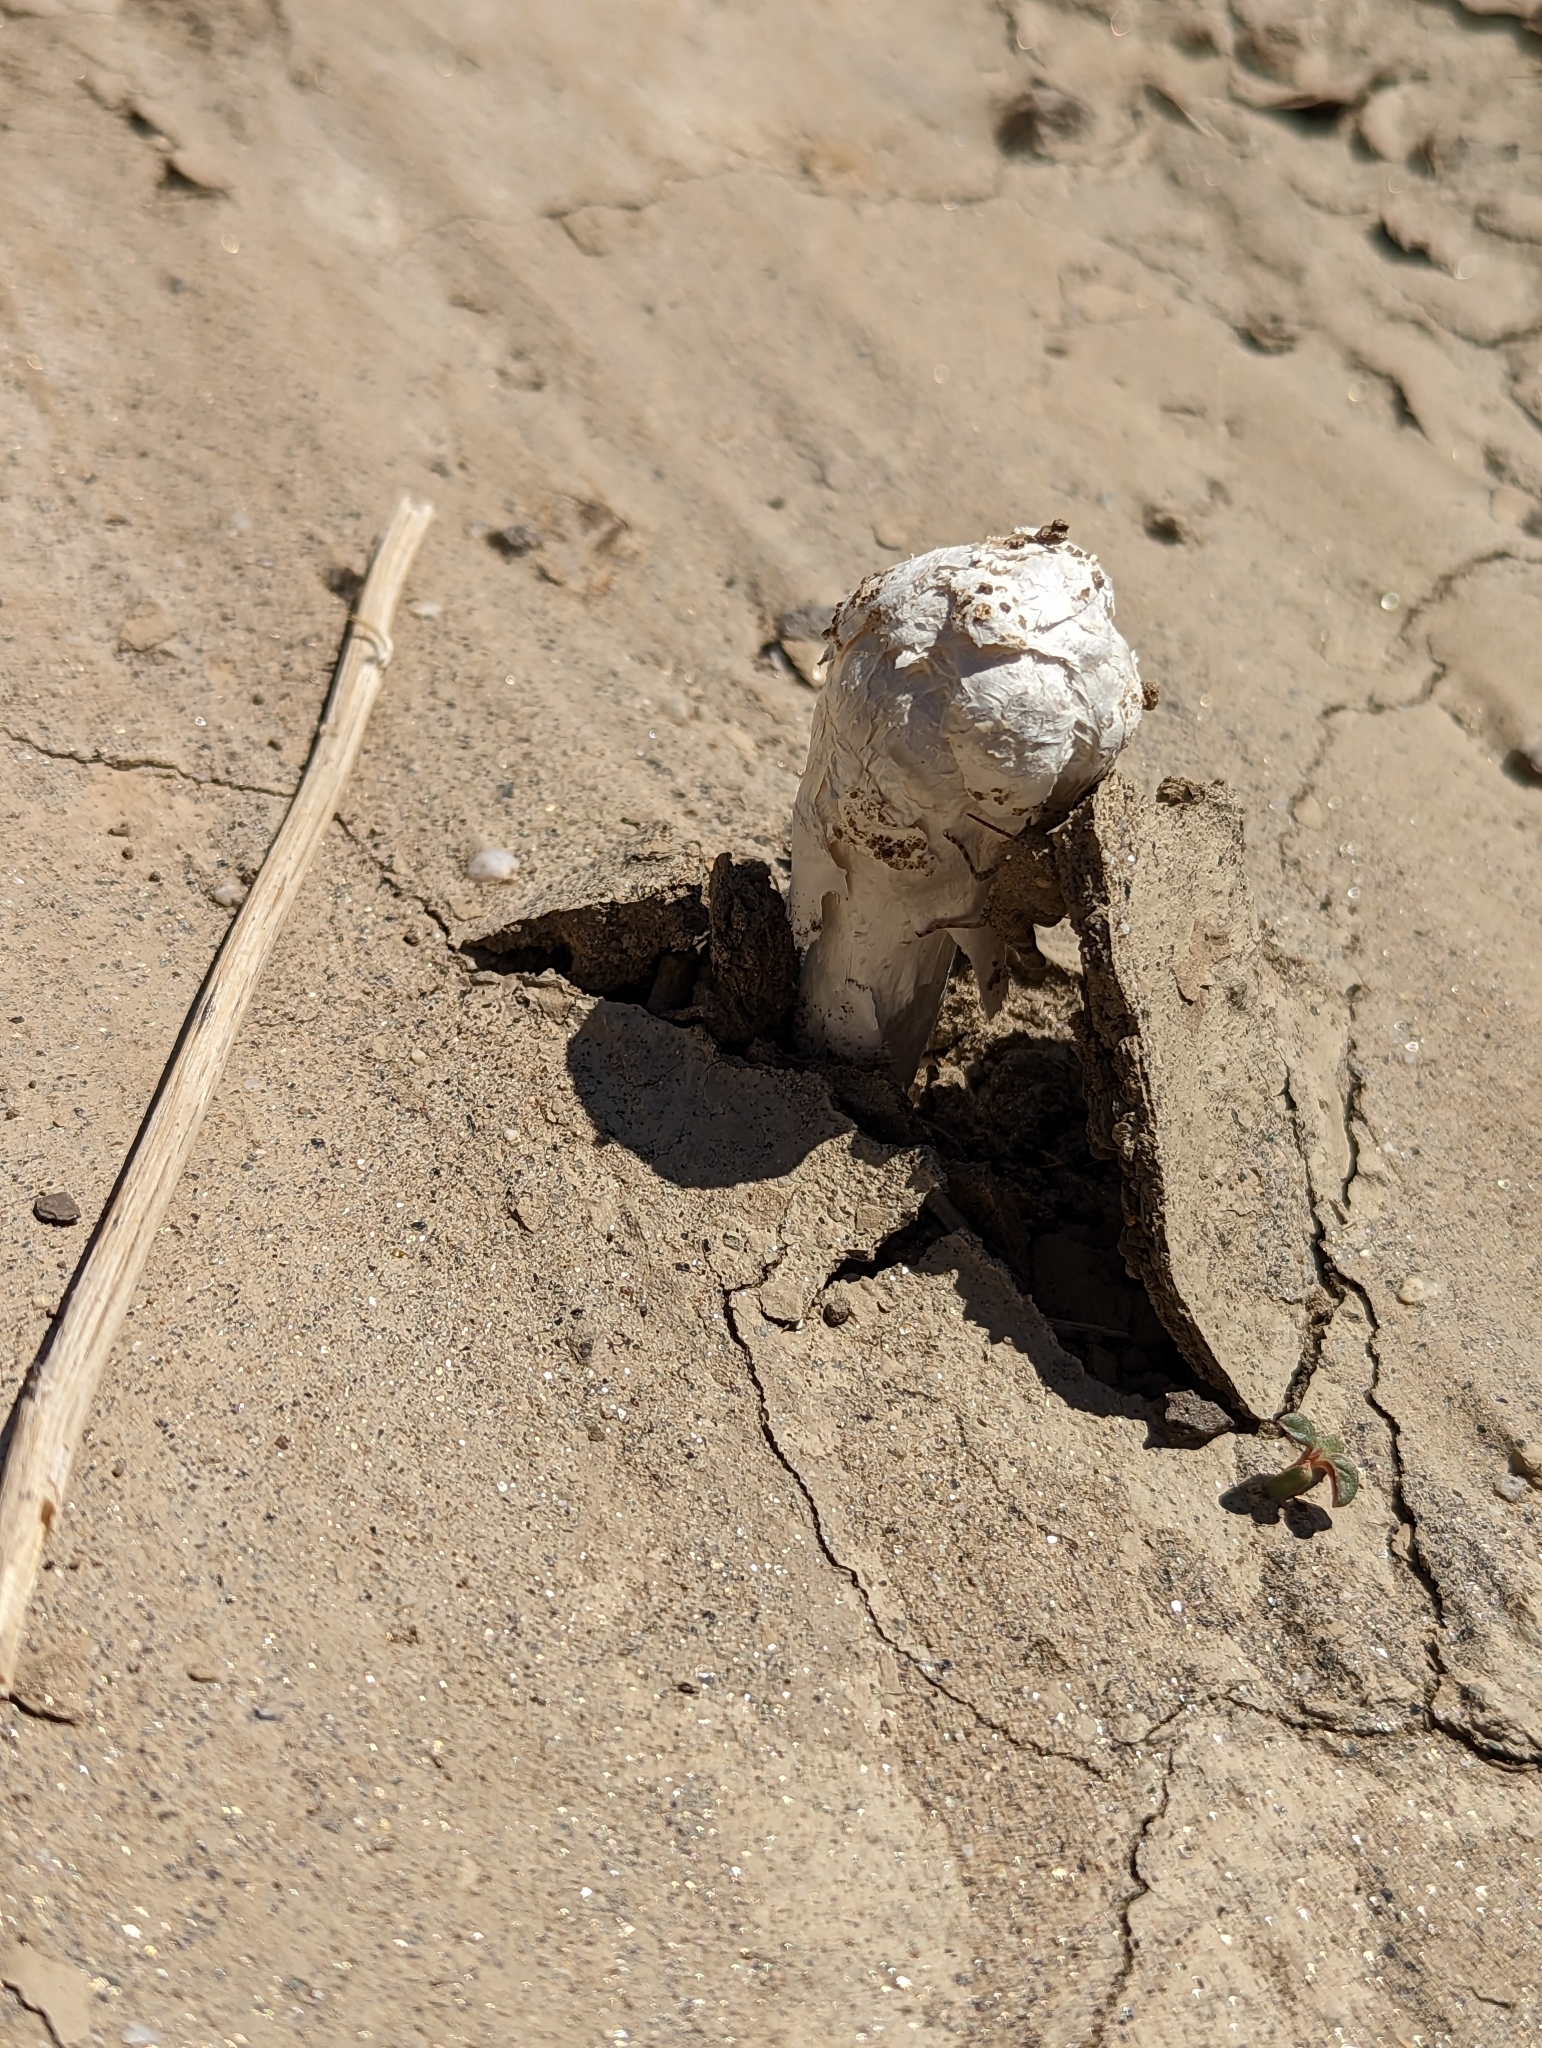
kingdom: Fungi
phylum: Basidiomycota
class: Agaricomycetes
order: Agaricales
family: Agaricaceae
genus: Podaxis
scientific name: Podaxis pistillaris
